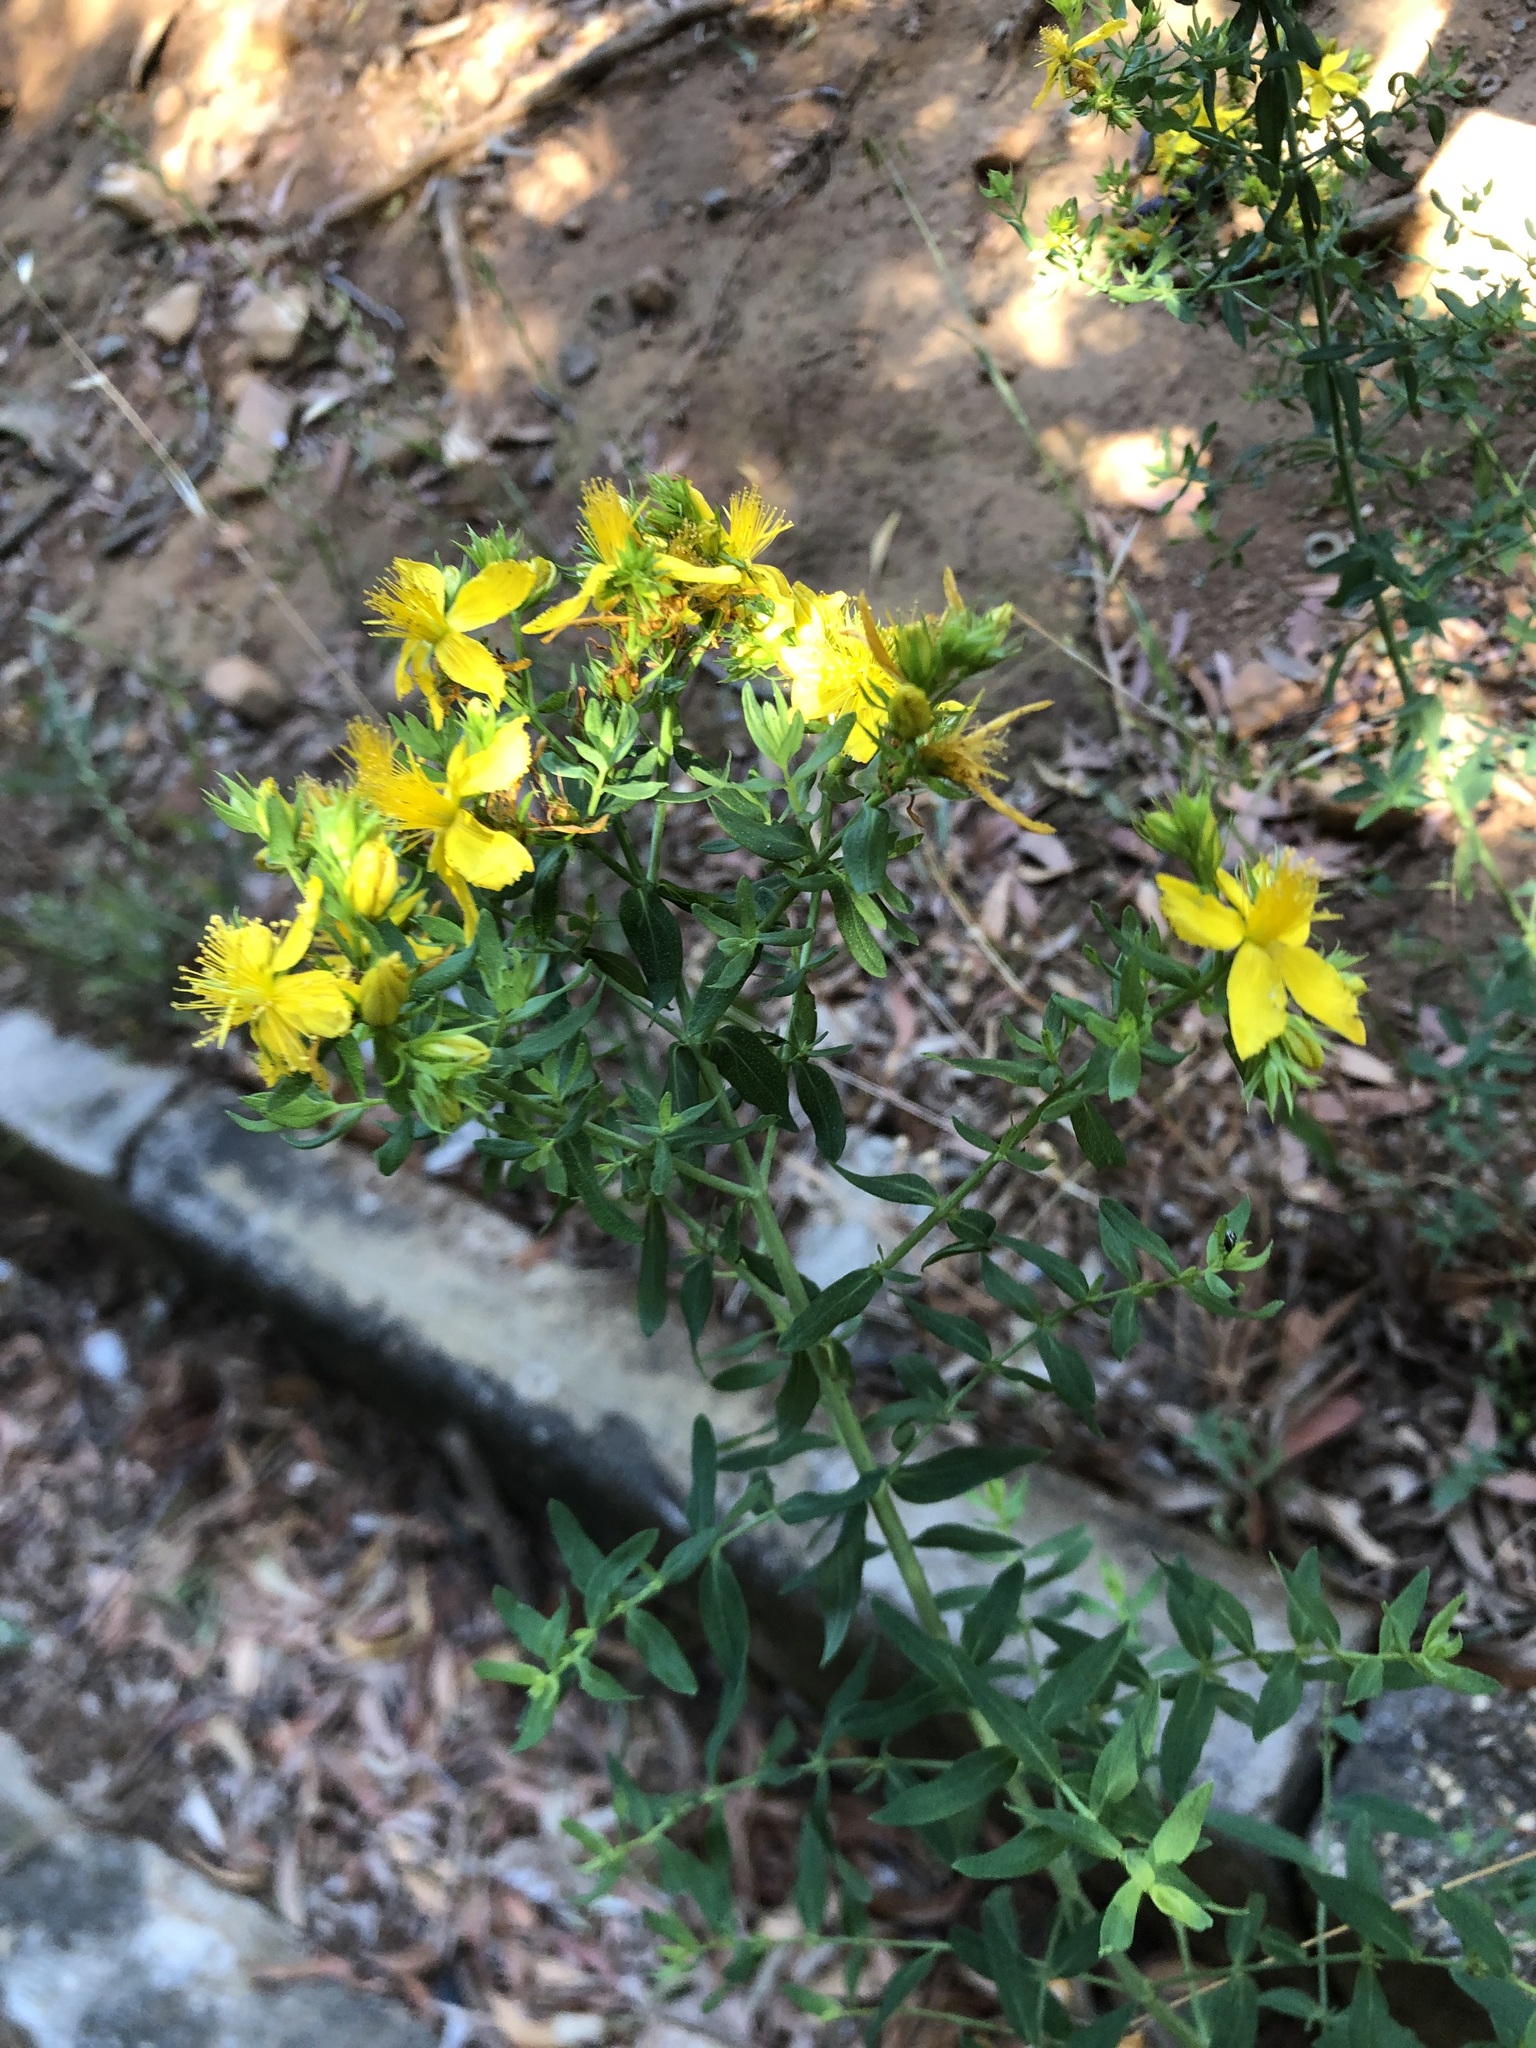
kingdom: Plantae
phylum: Tracheophyta
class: Magnoliopsida
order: Malpighiales
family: Hypericaceae
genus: Hypericum
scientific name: Hypericum canariense
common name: Canary island st. johnswort
